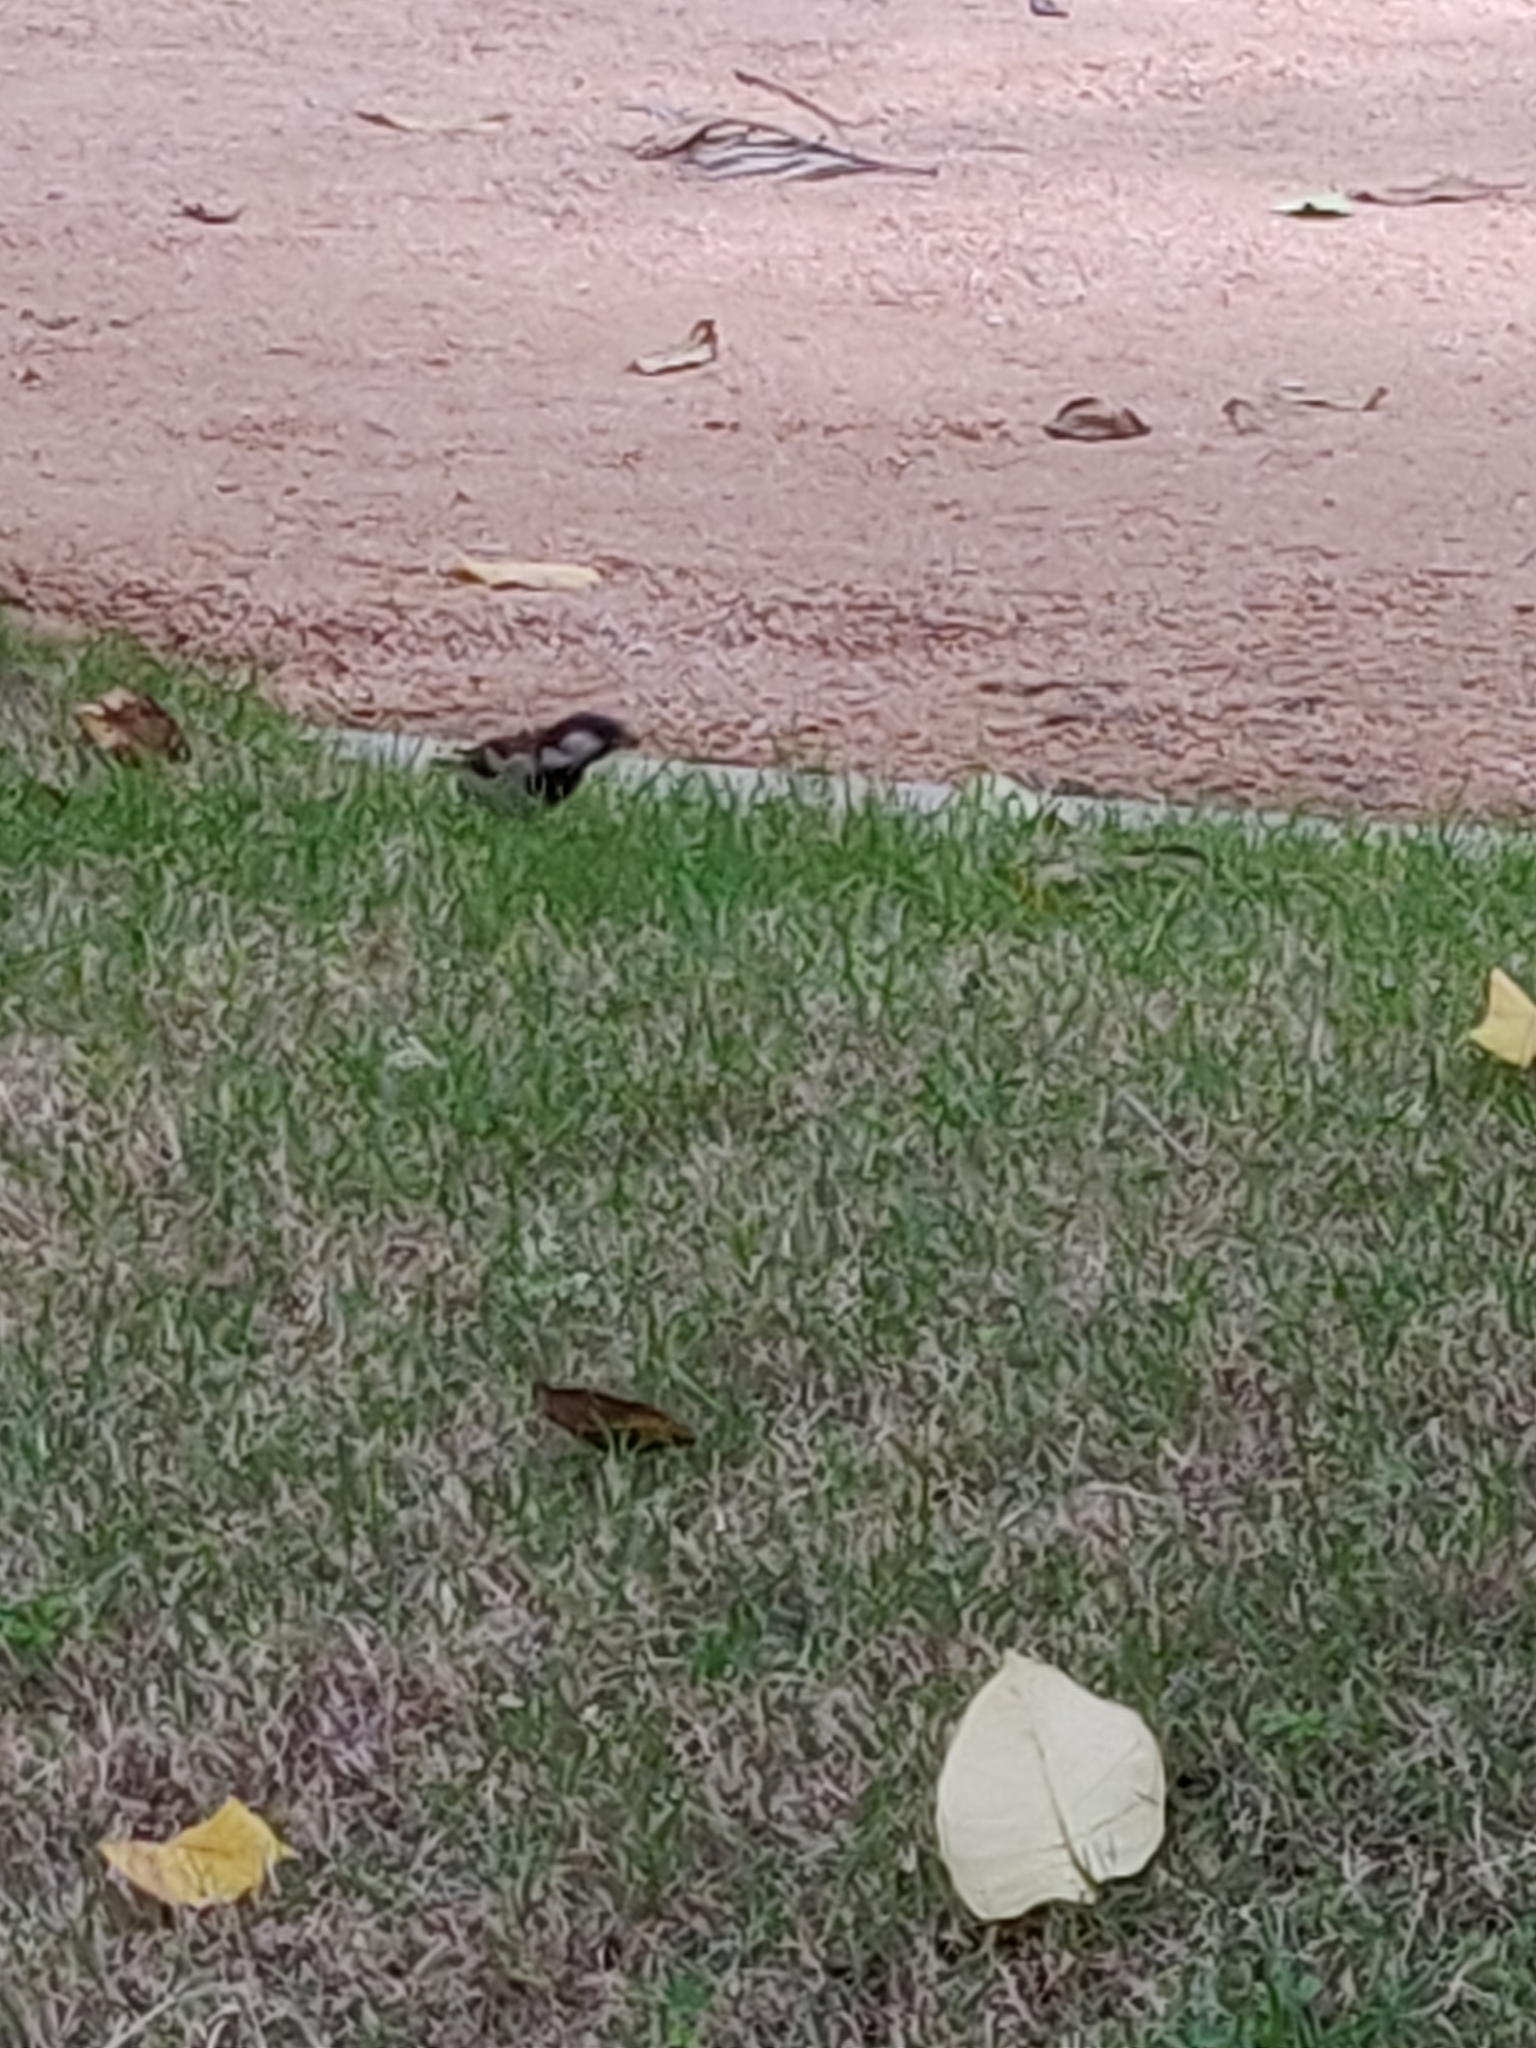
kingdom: Animalia
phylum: Chordata
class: Aves
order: Passeriformes
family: Passeridae
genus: Passer
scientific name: Passer domesticus
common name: House sparrow
